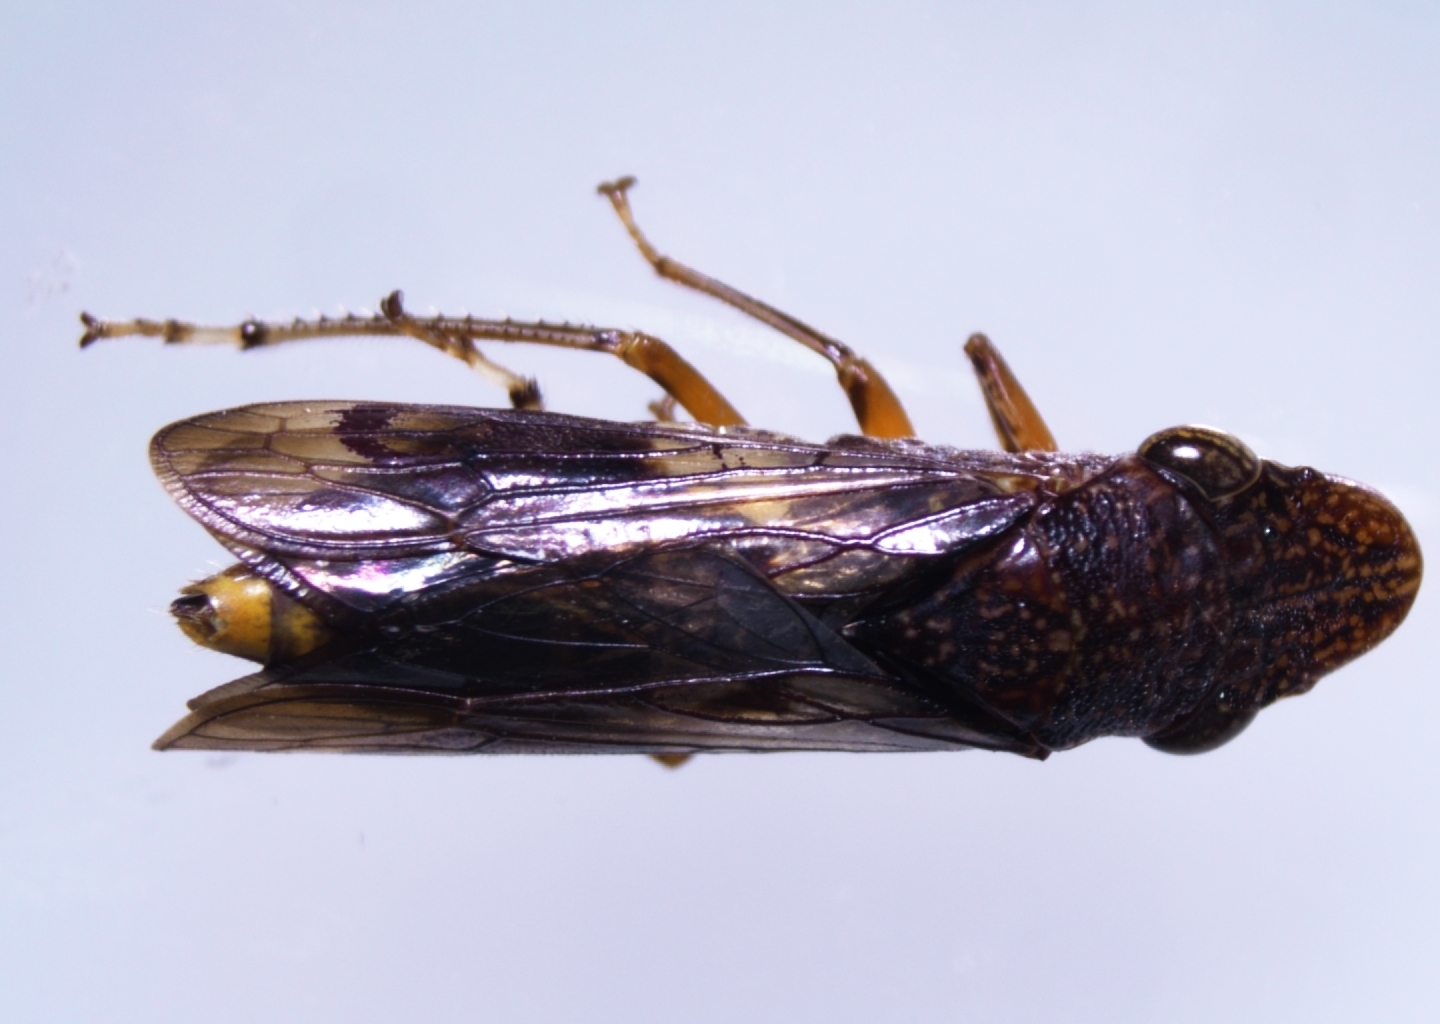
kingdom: Animalia
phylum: Arthropoda
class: Insecta
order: Hemiptera
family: Cicadellidae
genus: Homalodisca
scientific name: Homalodisca vitripennis
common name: Glassy-winged sharpshooter
